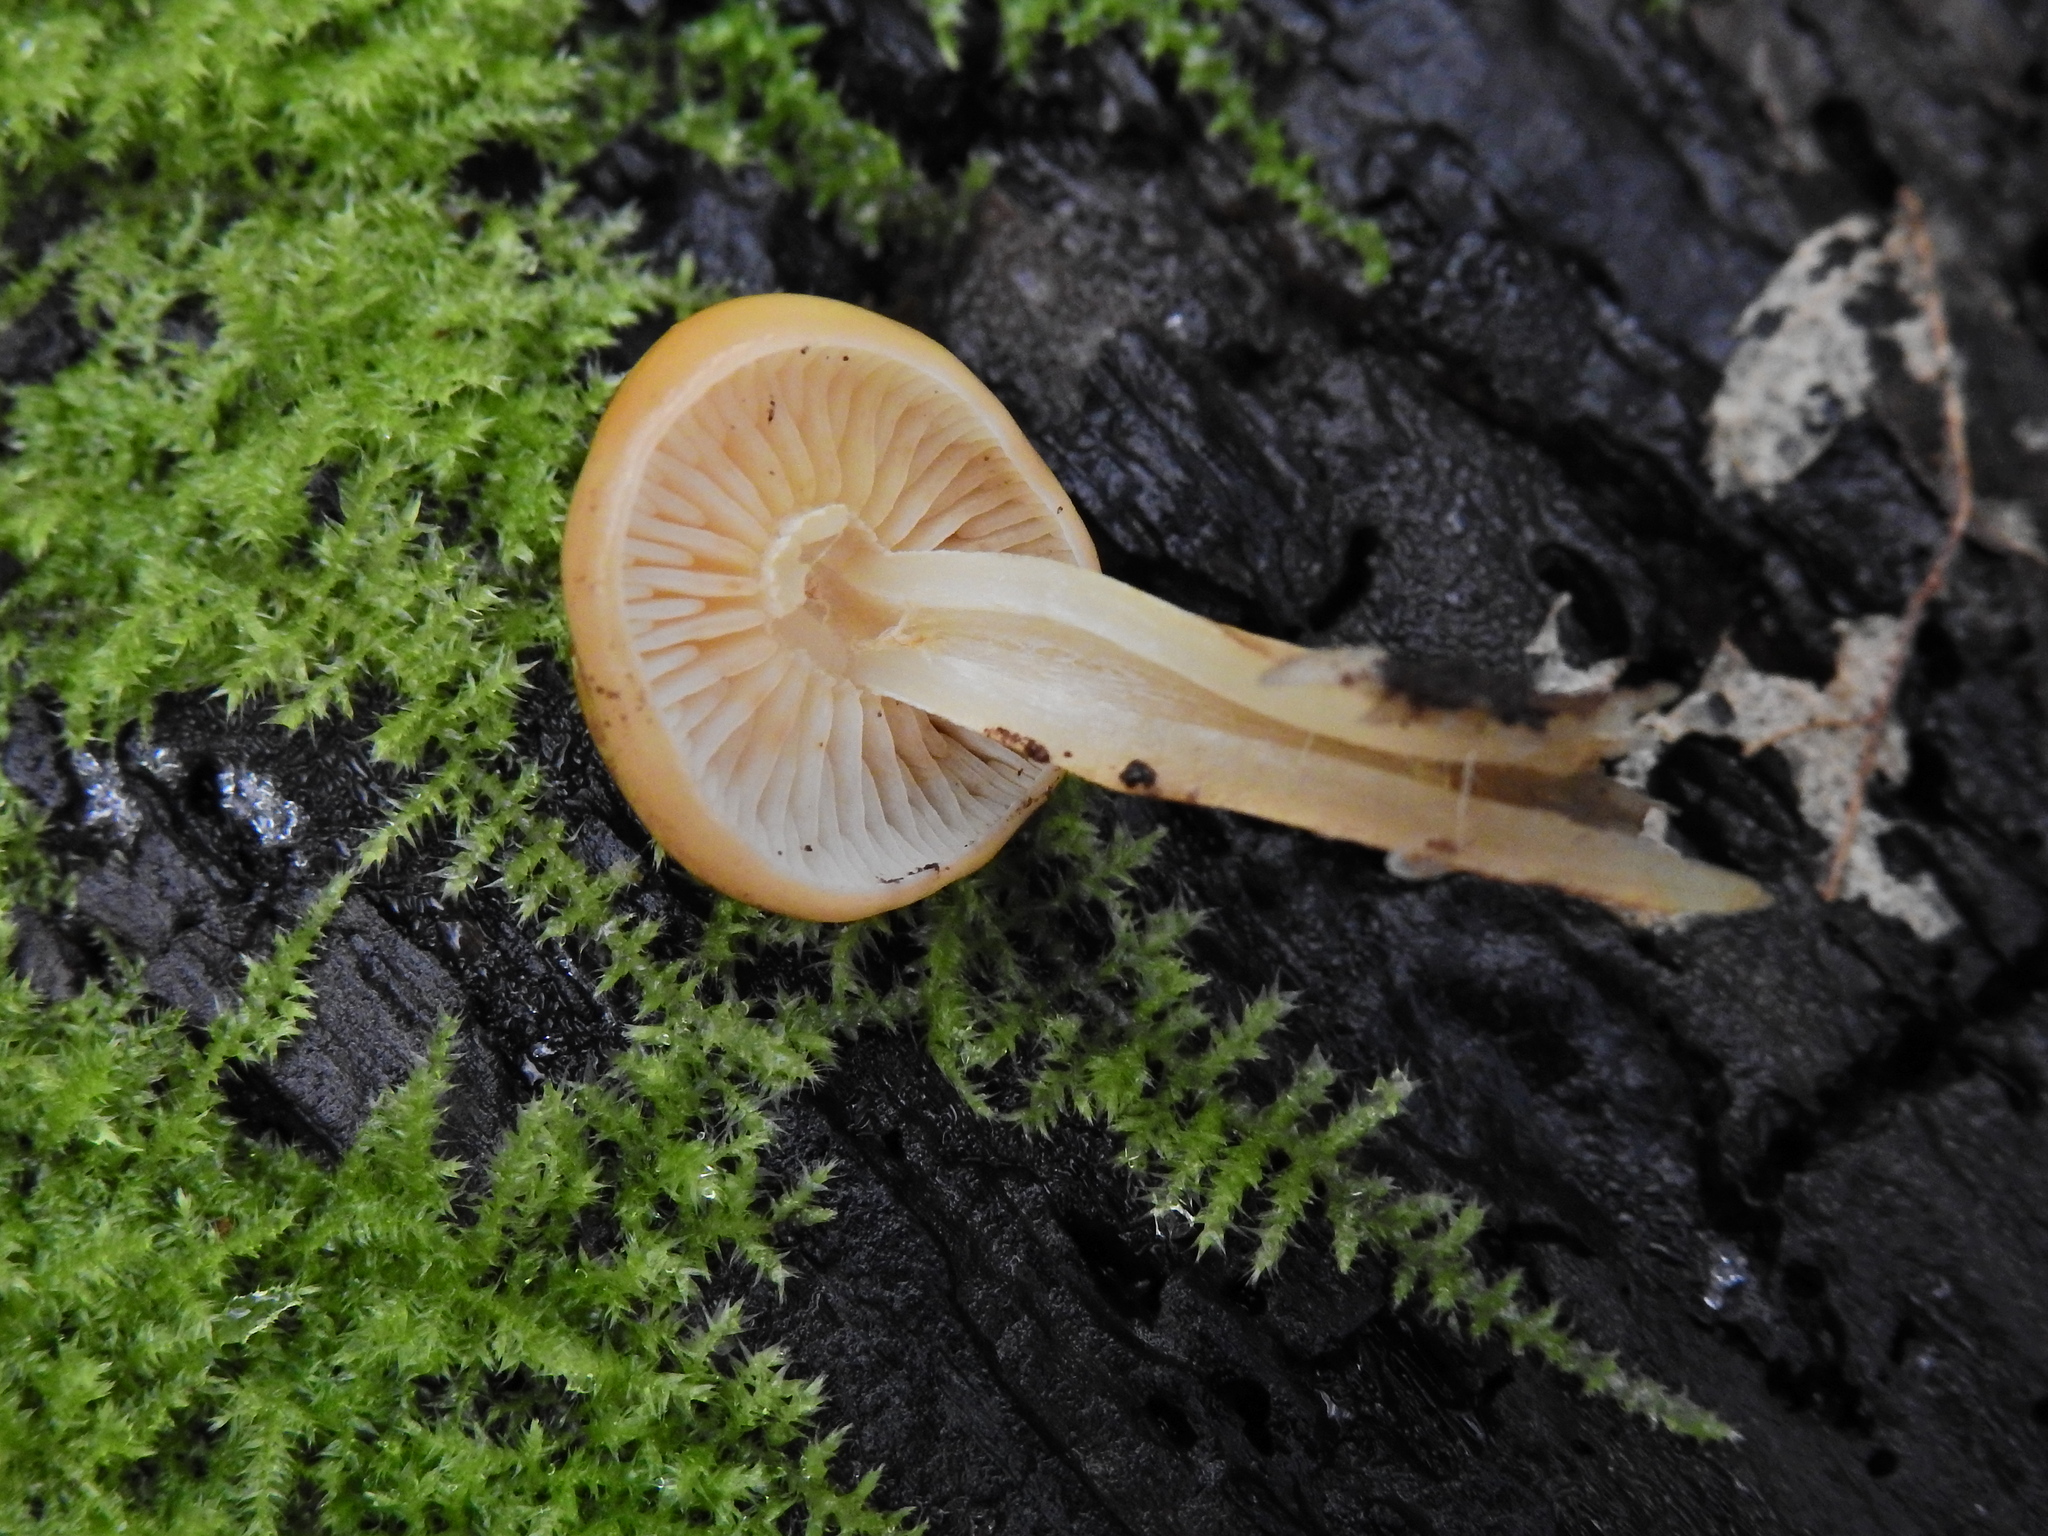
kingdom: Fungi
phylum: Basidiomycota
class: Agaricomycetes
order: Agaricales
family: Physalacriaceae
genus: Flammulina
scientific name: Flammulina
